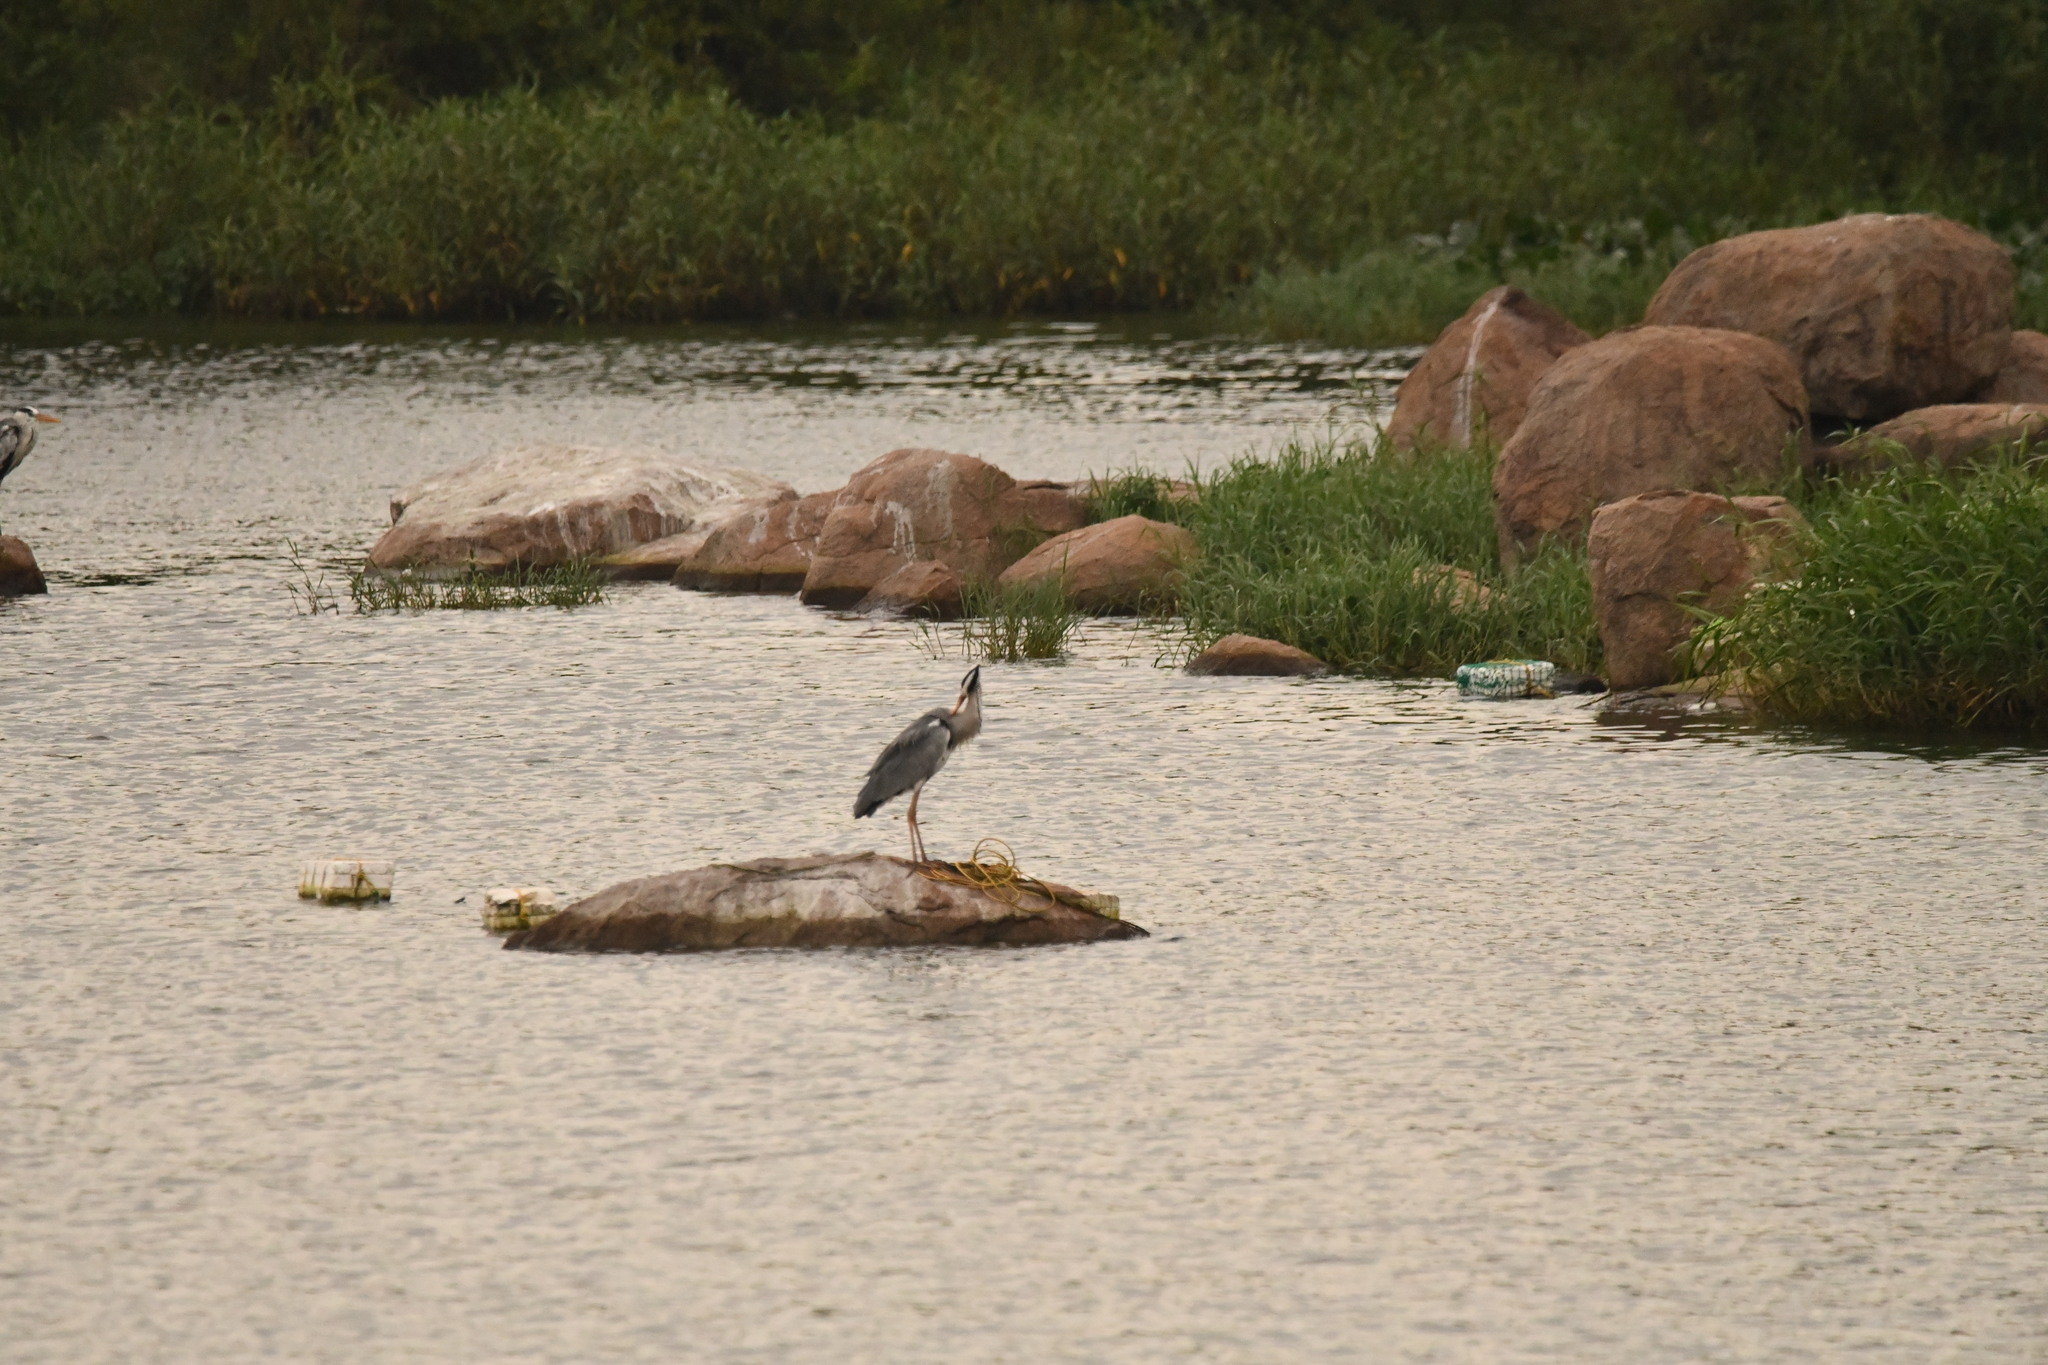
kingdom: Animalia
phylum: Chordata
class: Aves
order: Pelecaniformes
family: Ardeidae
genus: Ardea
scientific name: Ardea cinerea
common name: Grey heron
